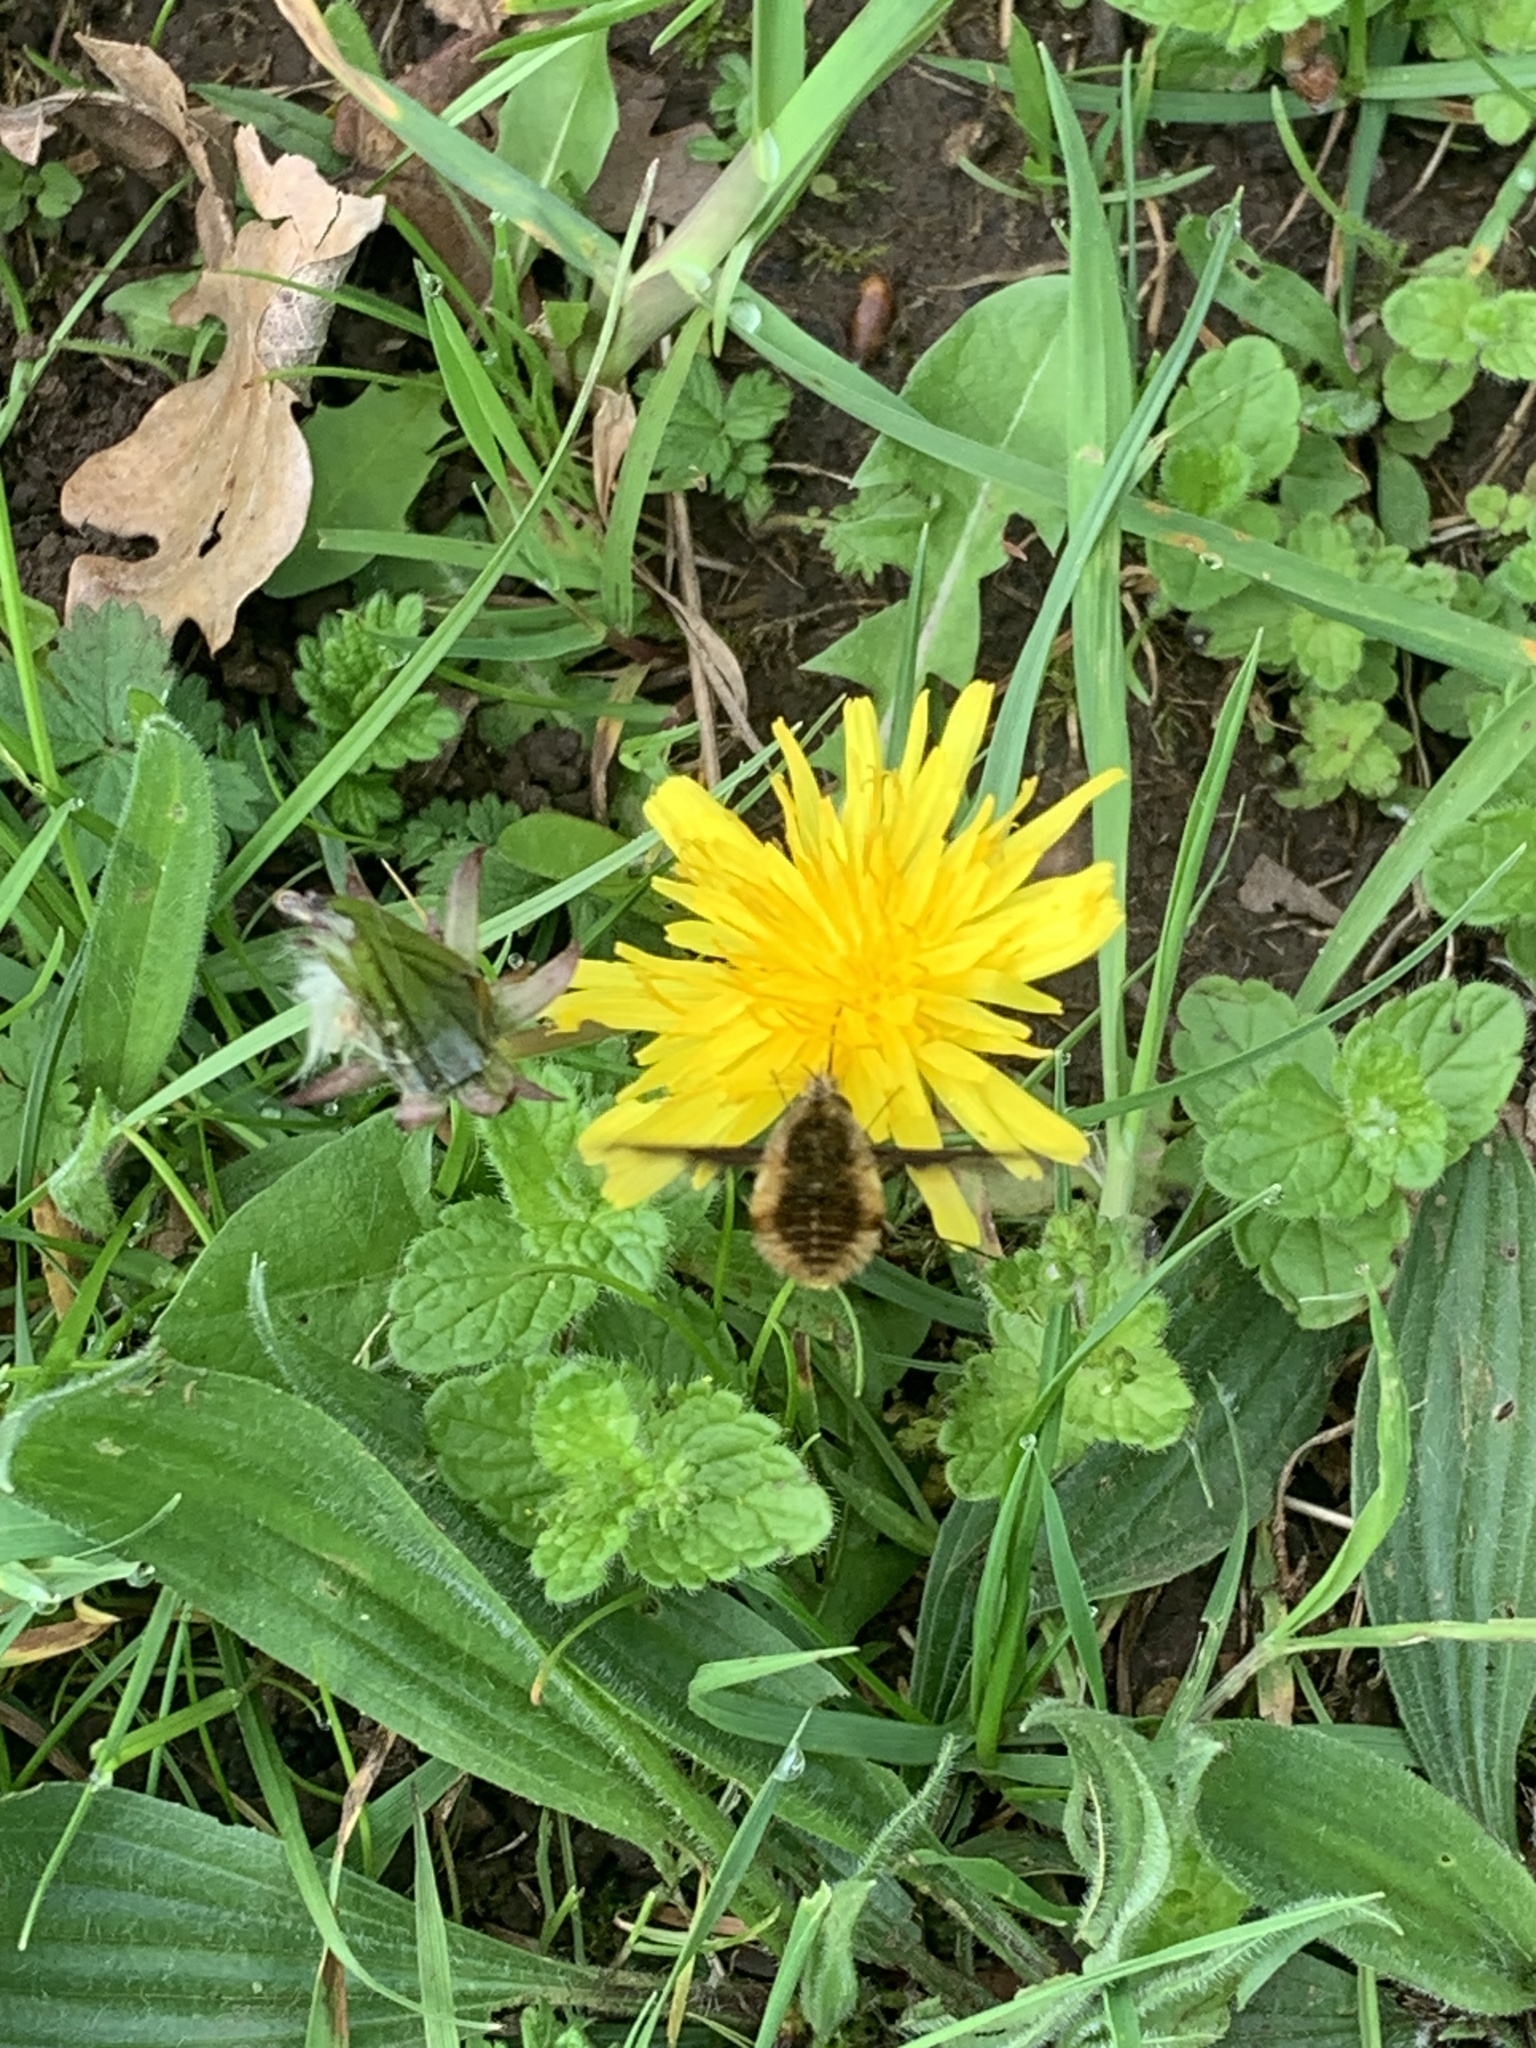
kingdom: Animalia
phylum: Arthropoda
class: Insecta
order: Diptera
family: Bombyliidae
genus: Bombylius
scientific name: Bombylius major
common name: Bee fly
